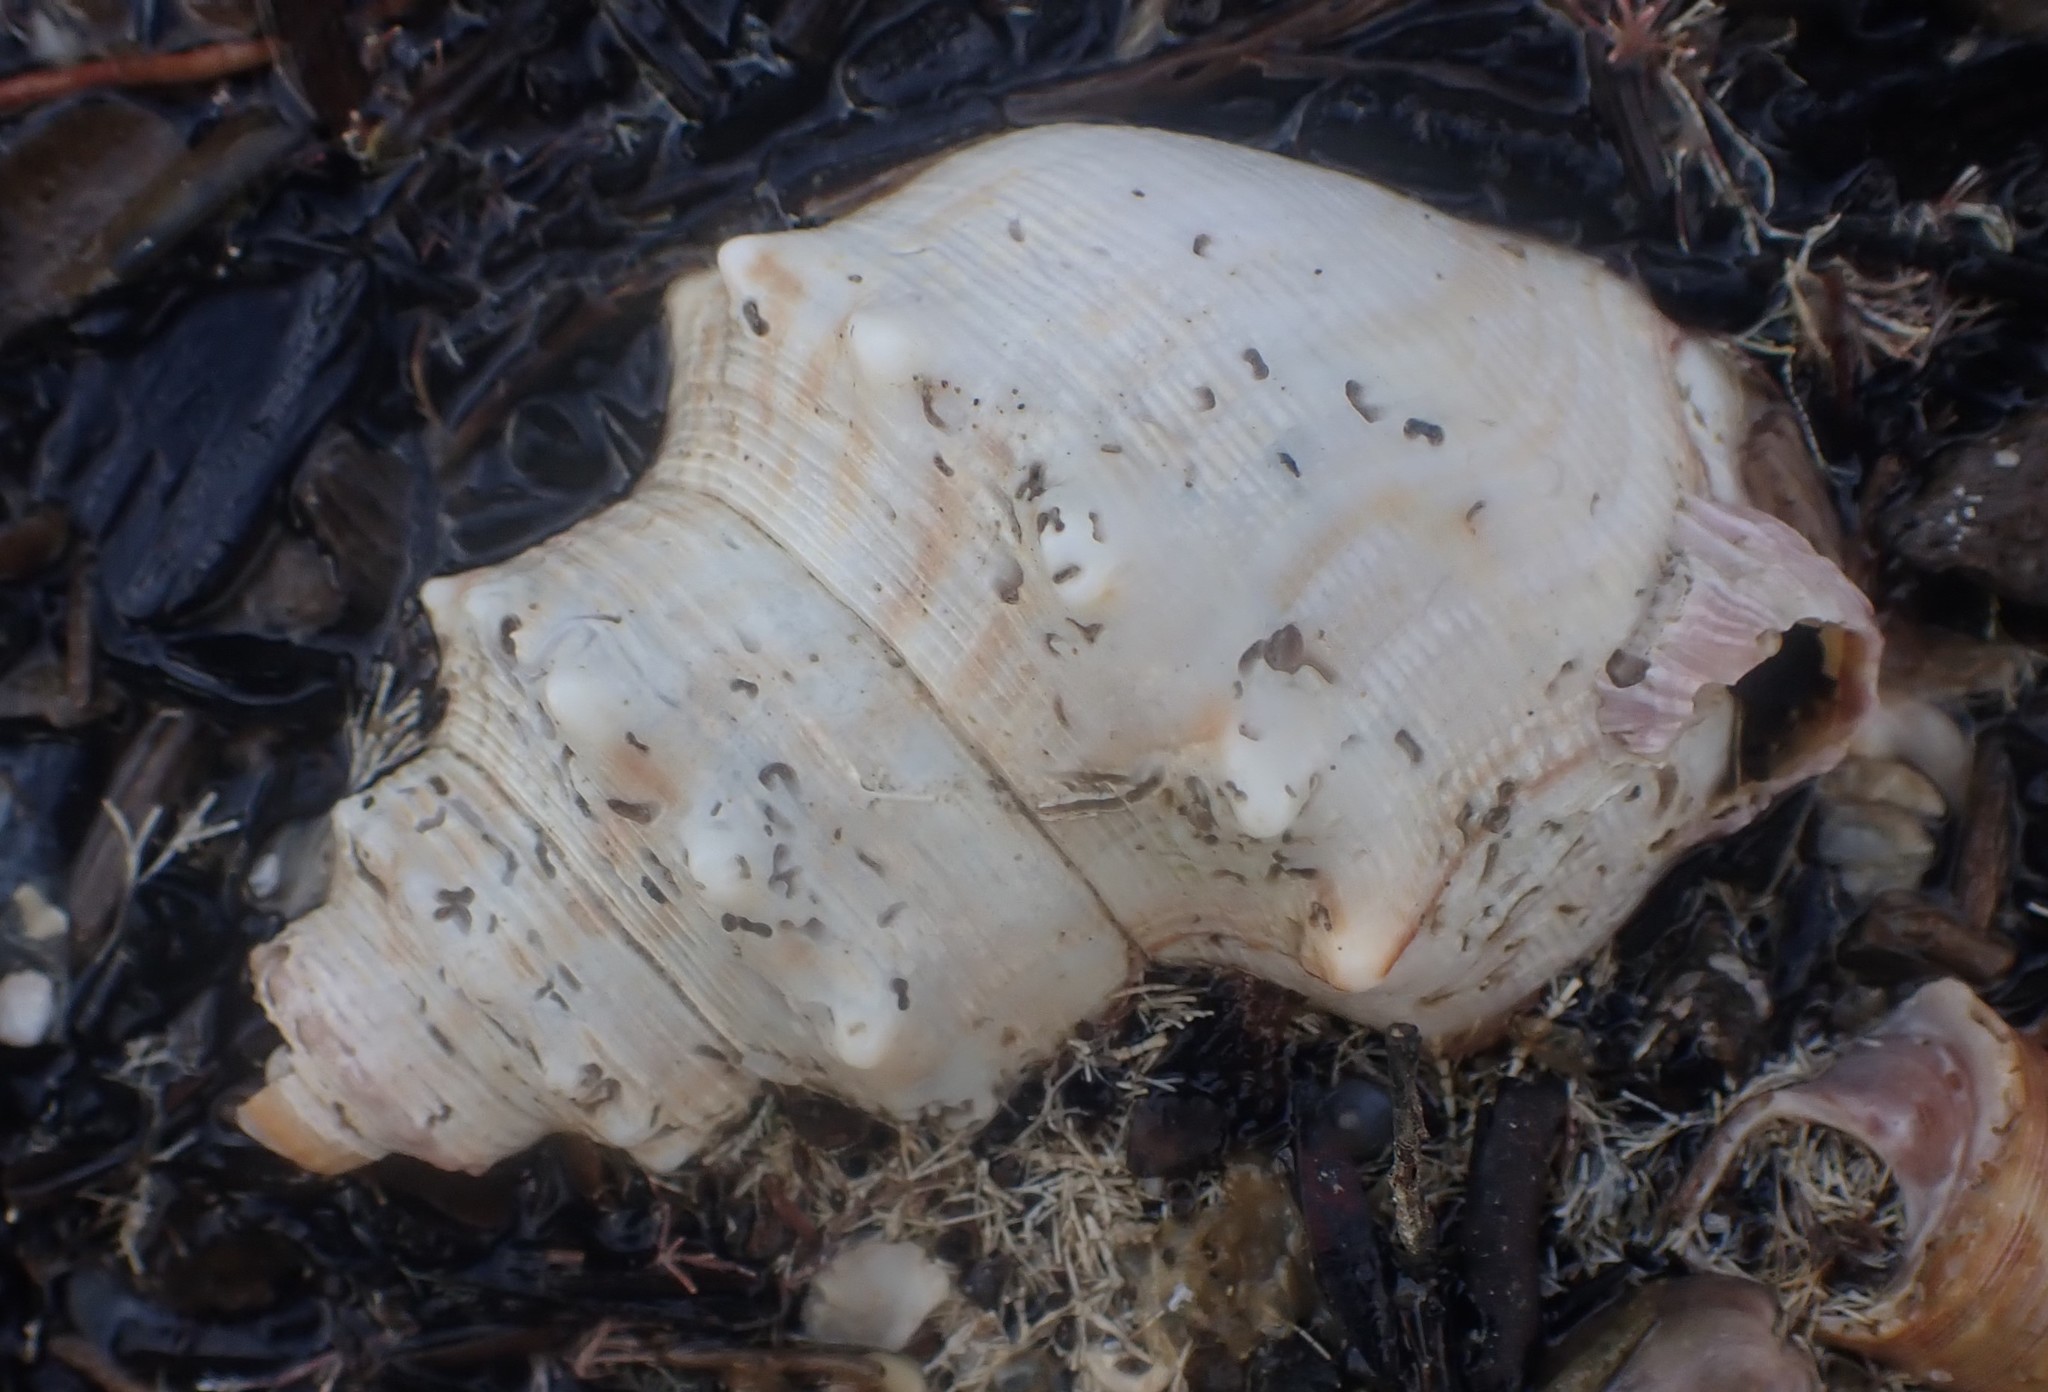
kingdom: Animalia
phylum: Mollusca
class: Gastropoda
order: Littorinimorpha
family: Struthiolariidae
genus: Struthiolaria
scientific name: Struthiolaria papulosa
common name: Large ostrich foot
